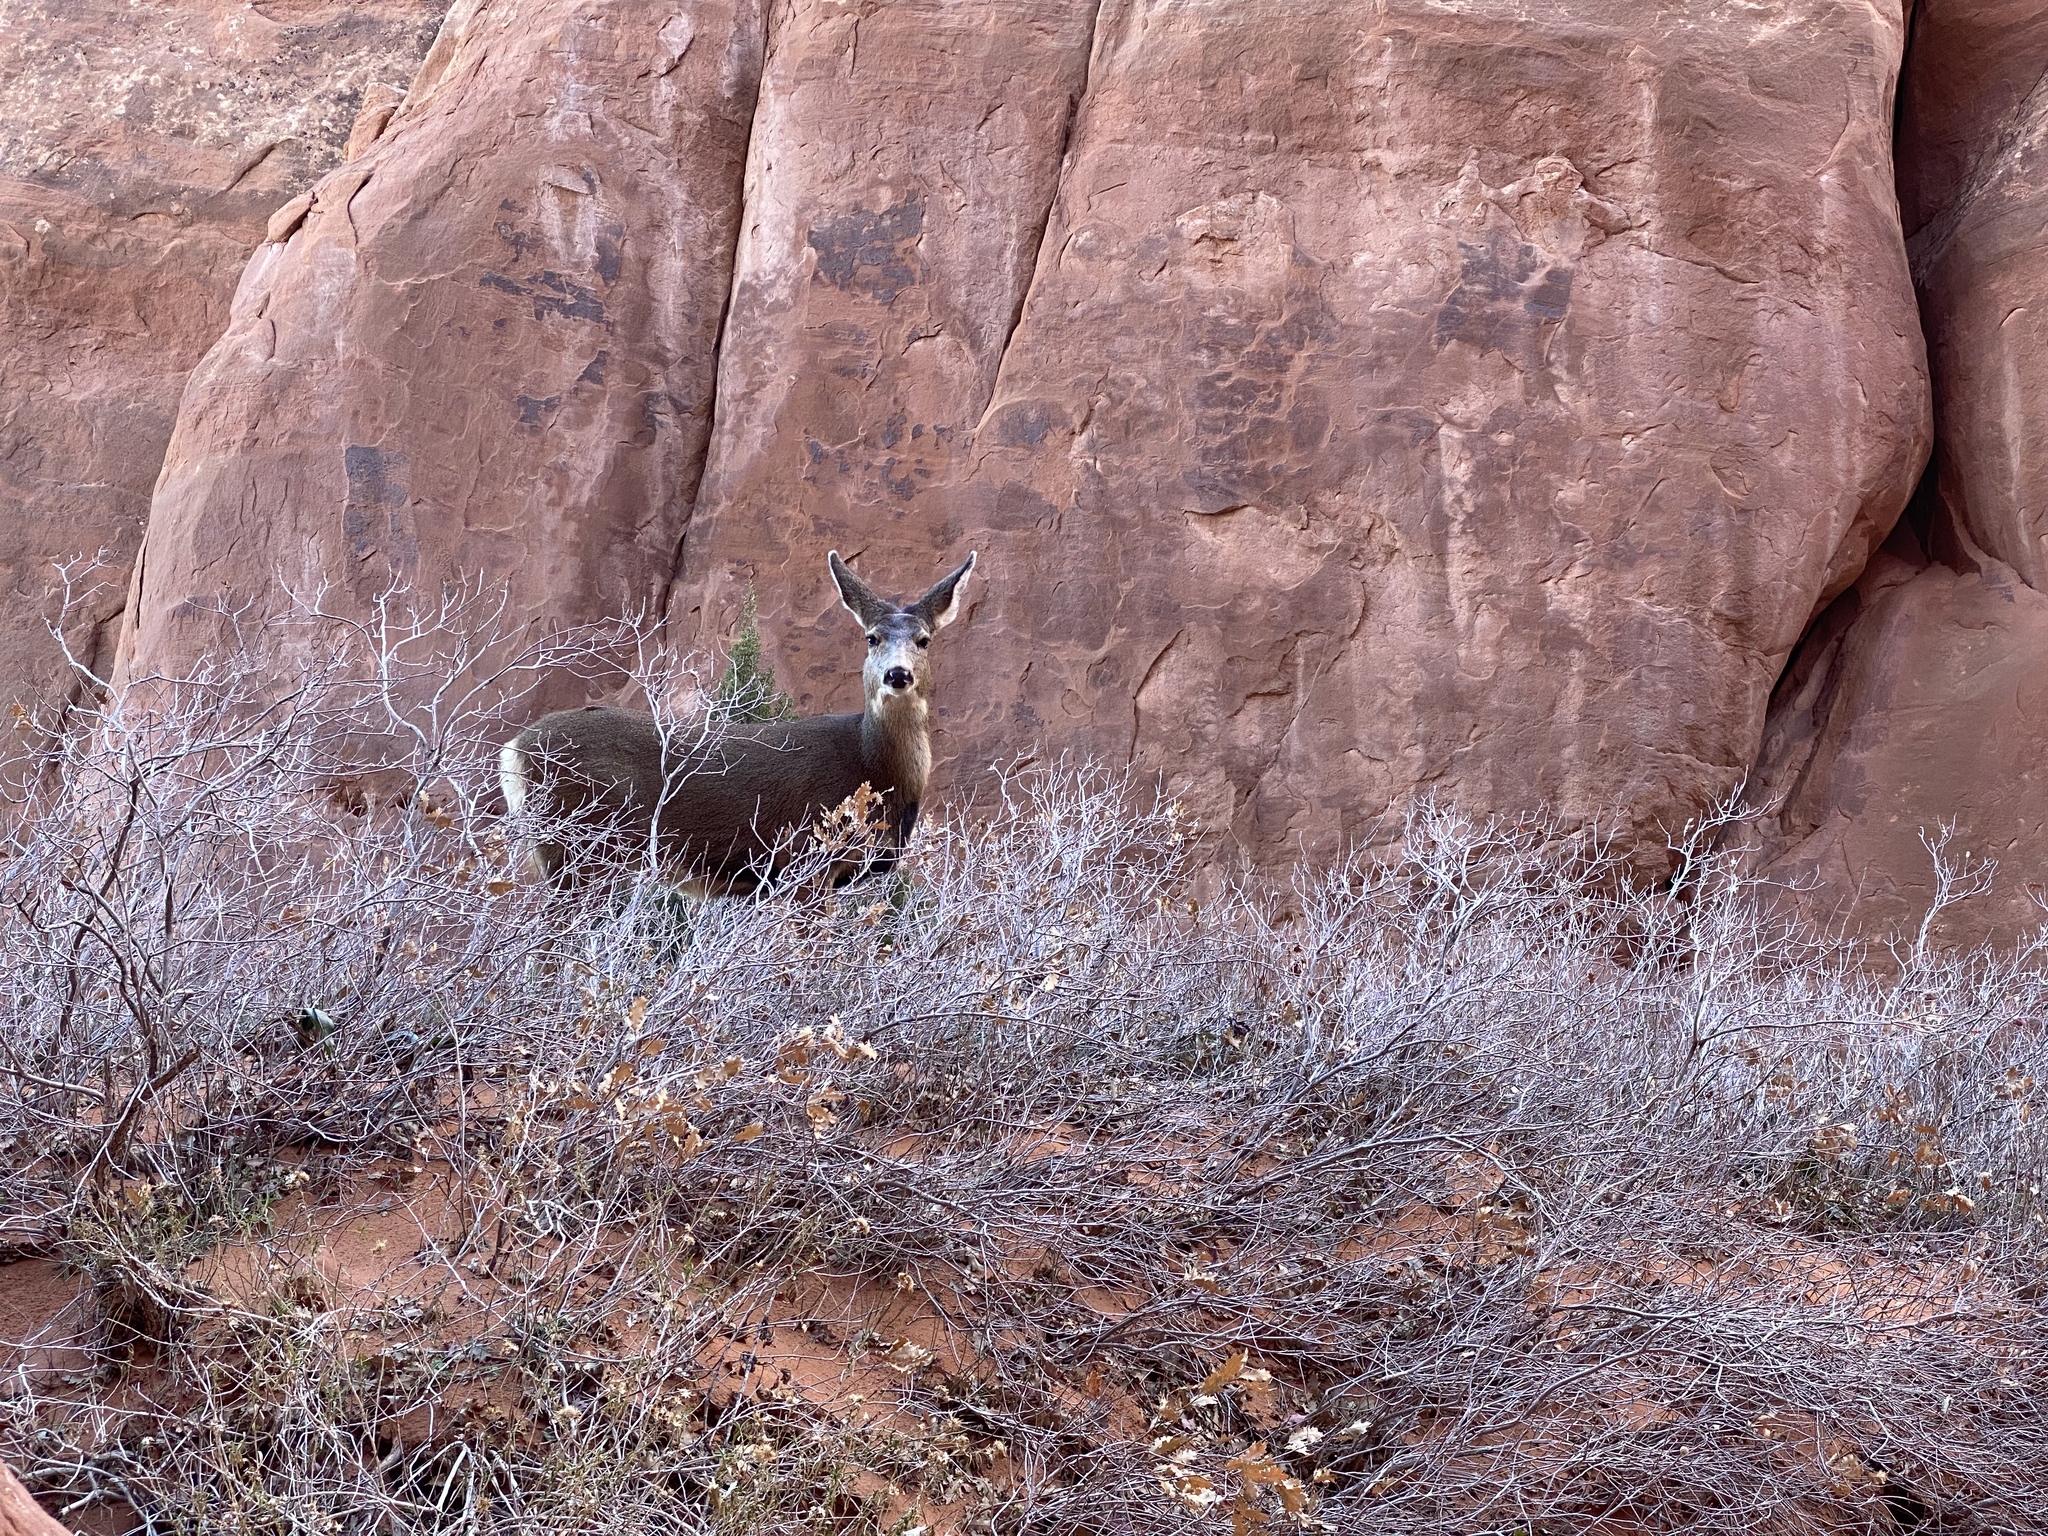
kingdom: Animalia
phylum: Chordata
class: Mammalia
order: Artiodactyla
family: Cervidae
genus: Odocoileus
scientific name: Odocoileus hemionus
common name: Mule deer
